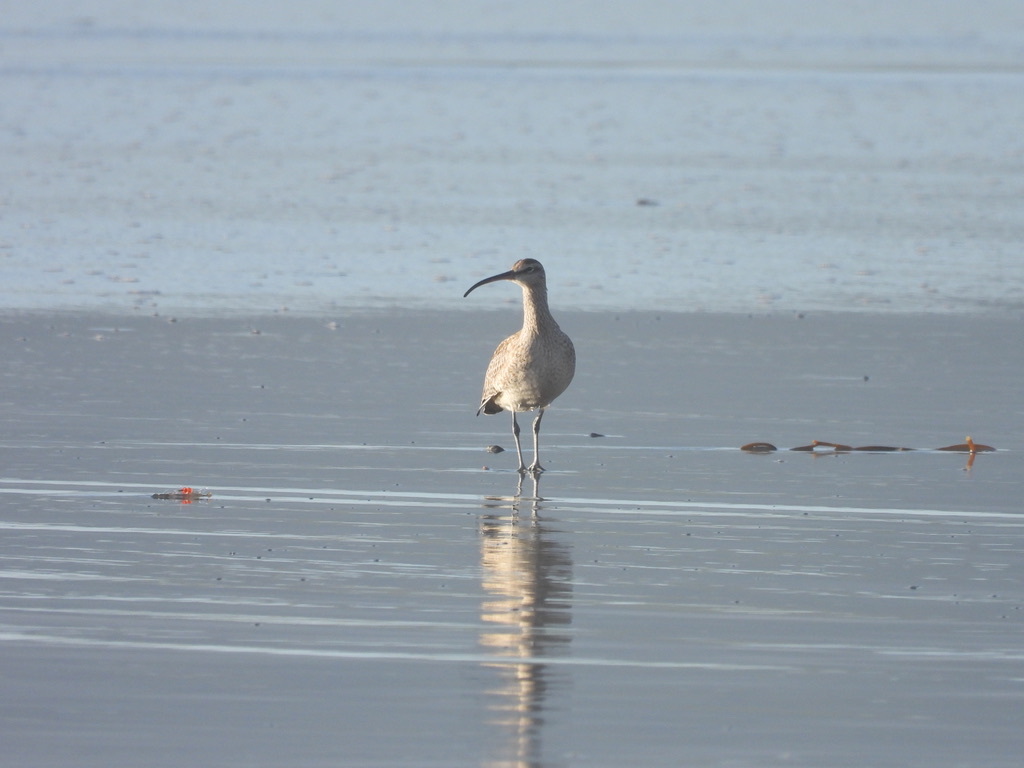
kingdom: Animalia
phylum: Chordata
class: Aves
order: Charadriiformes
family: Scolopacidae
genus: Numenius
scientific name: Numenius phaeopus
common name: Whimbrel
